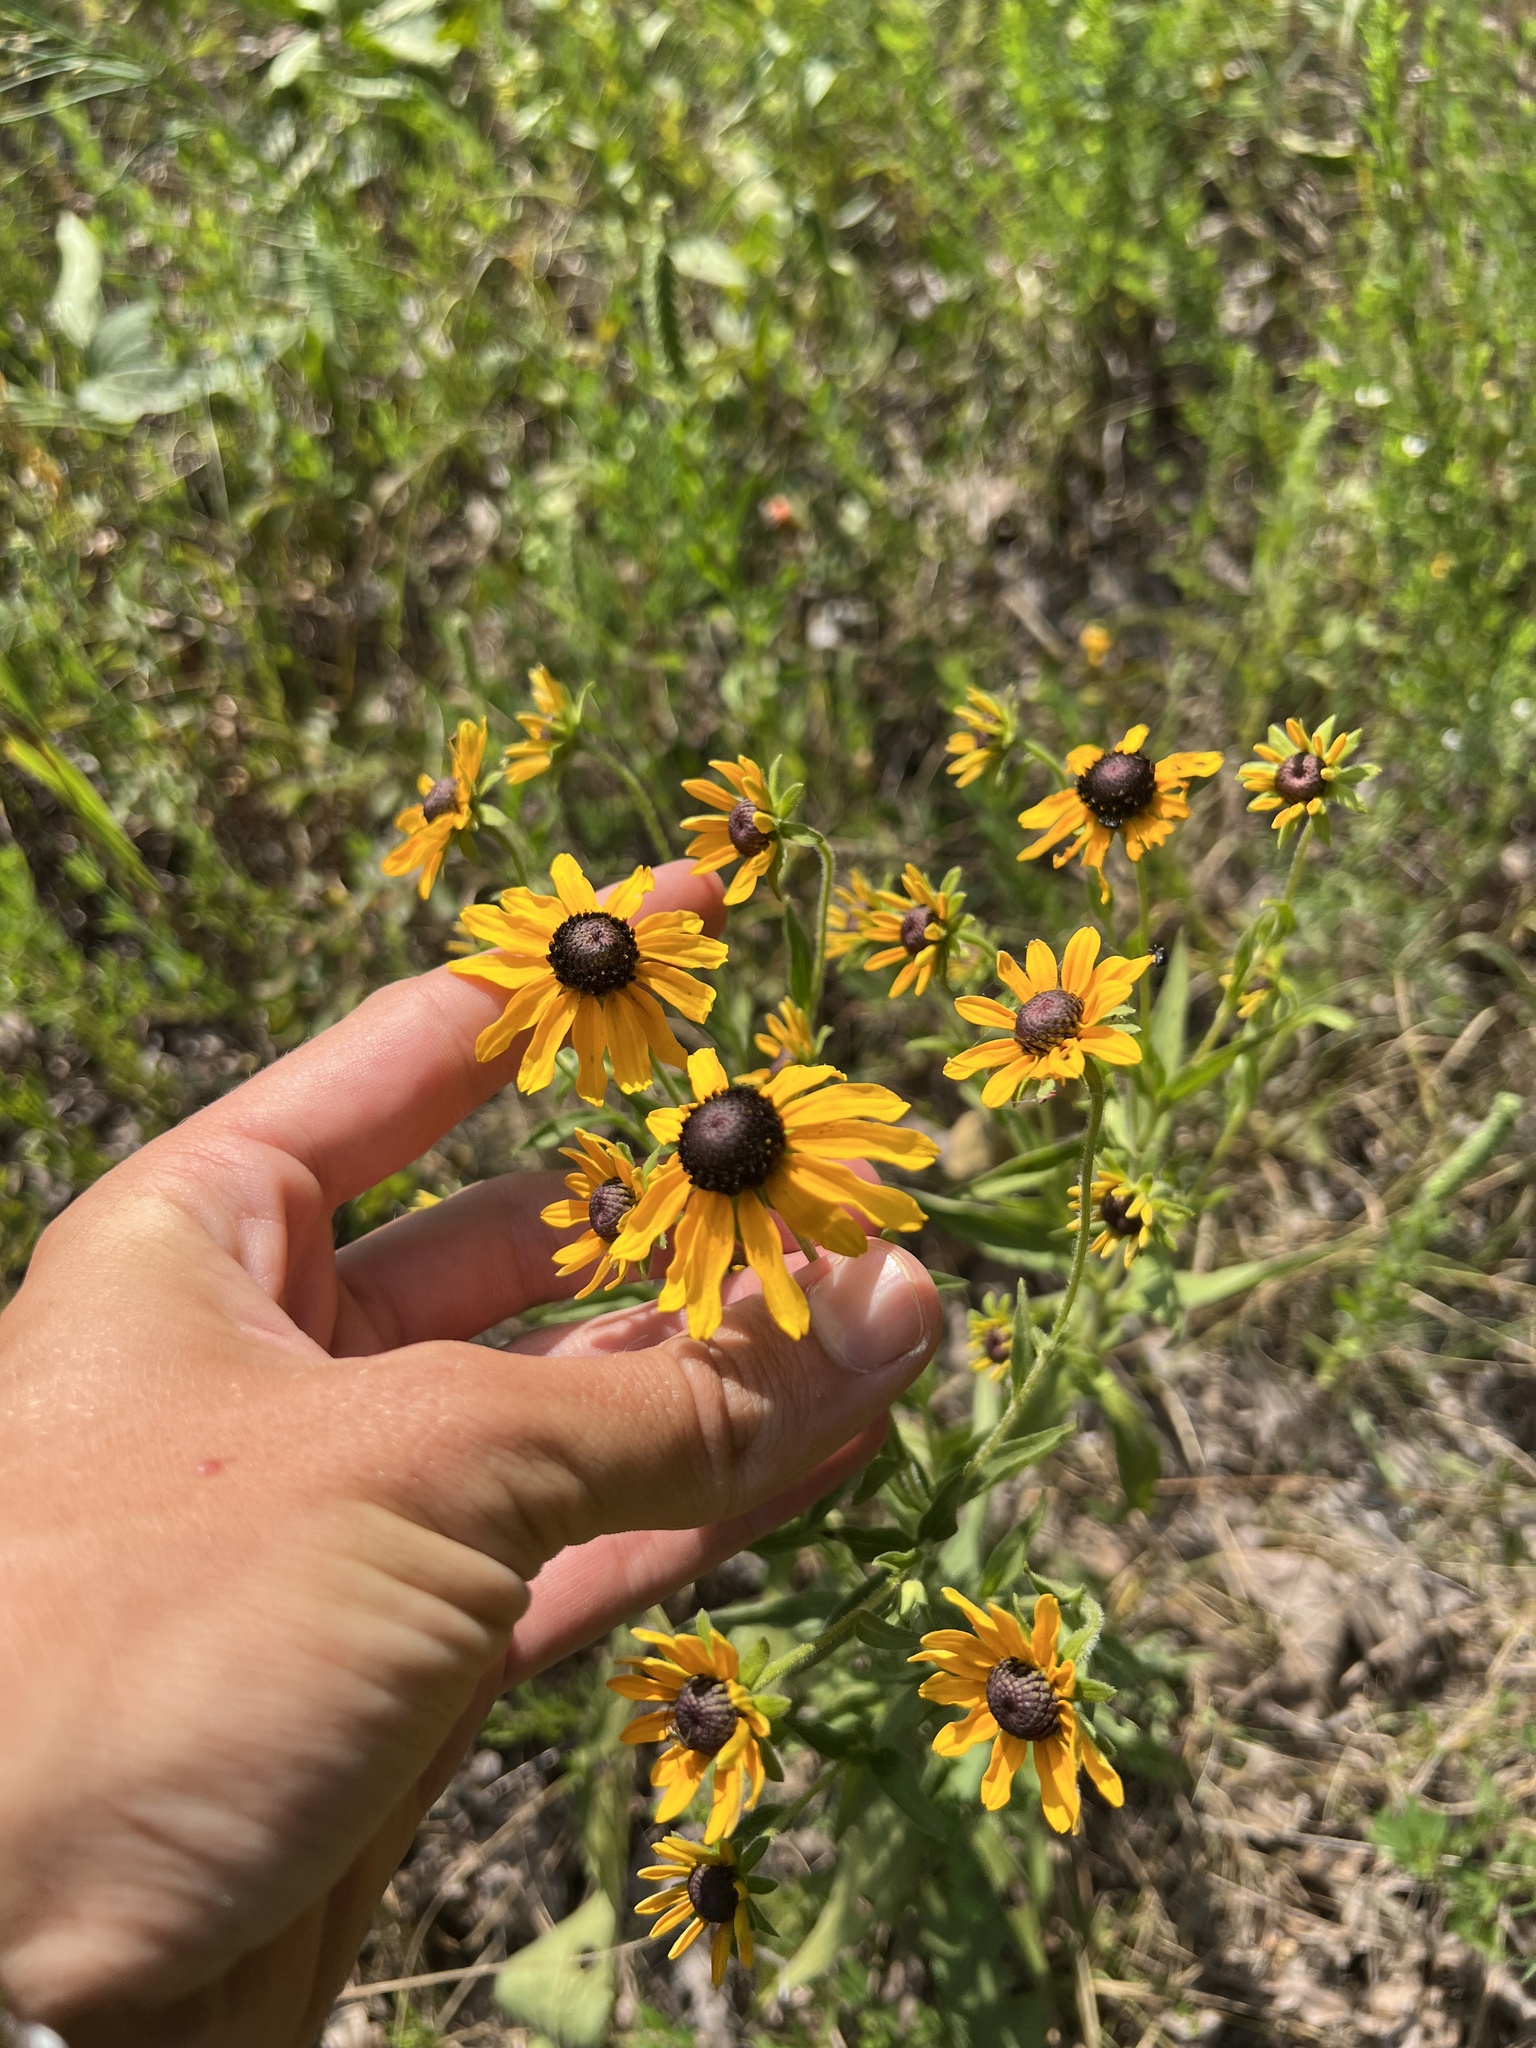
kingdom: Plantae
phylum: Tracheophyta
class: Magnoliopsida
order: Asterales
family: Asteraceae
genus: Rudbeckia
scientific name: Rudbeckia sullivantii
